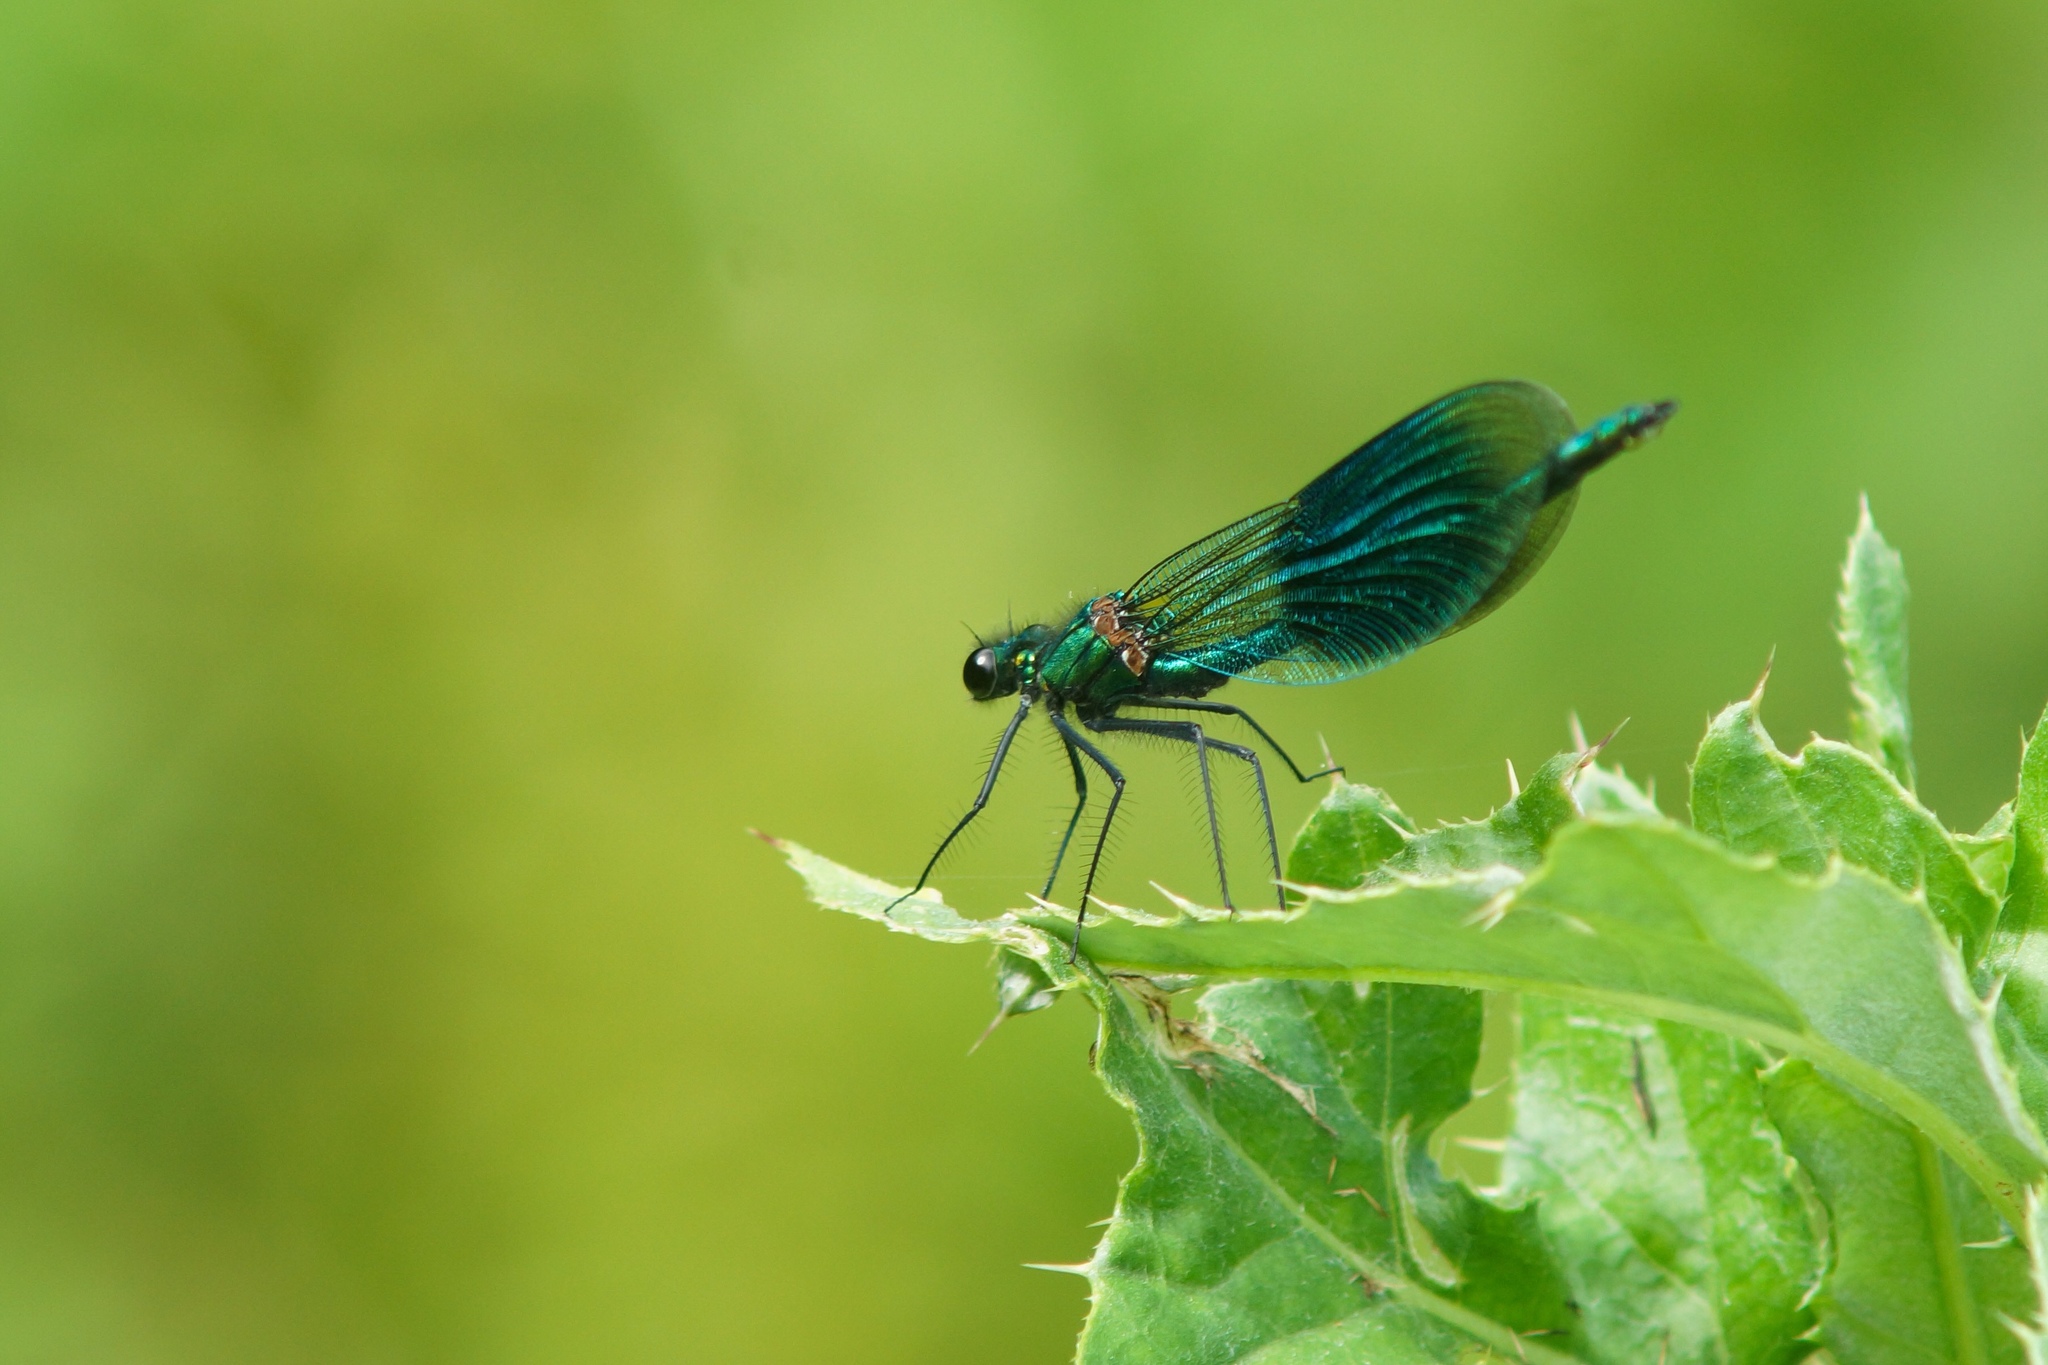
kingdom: Animalia
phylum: Arthropoda
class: Insecta
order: Odonata
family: Calopterygidae
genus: Calopteryx
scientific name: Calopteryx splendens
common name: Banded demoiselle
